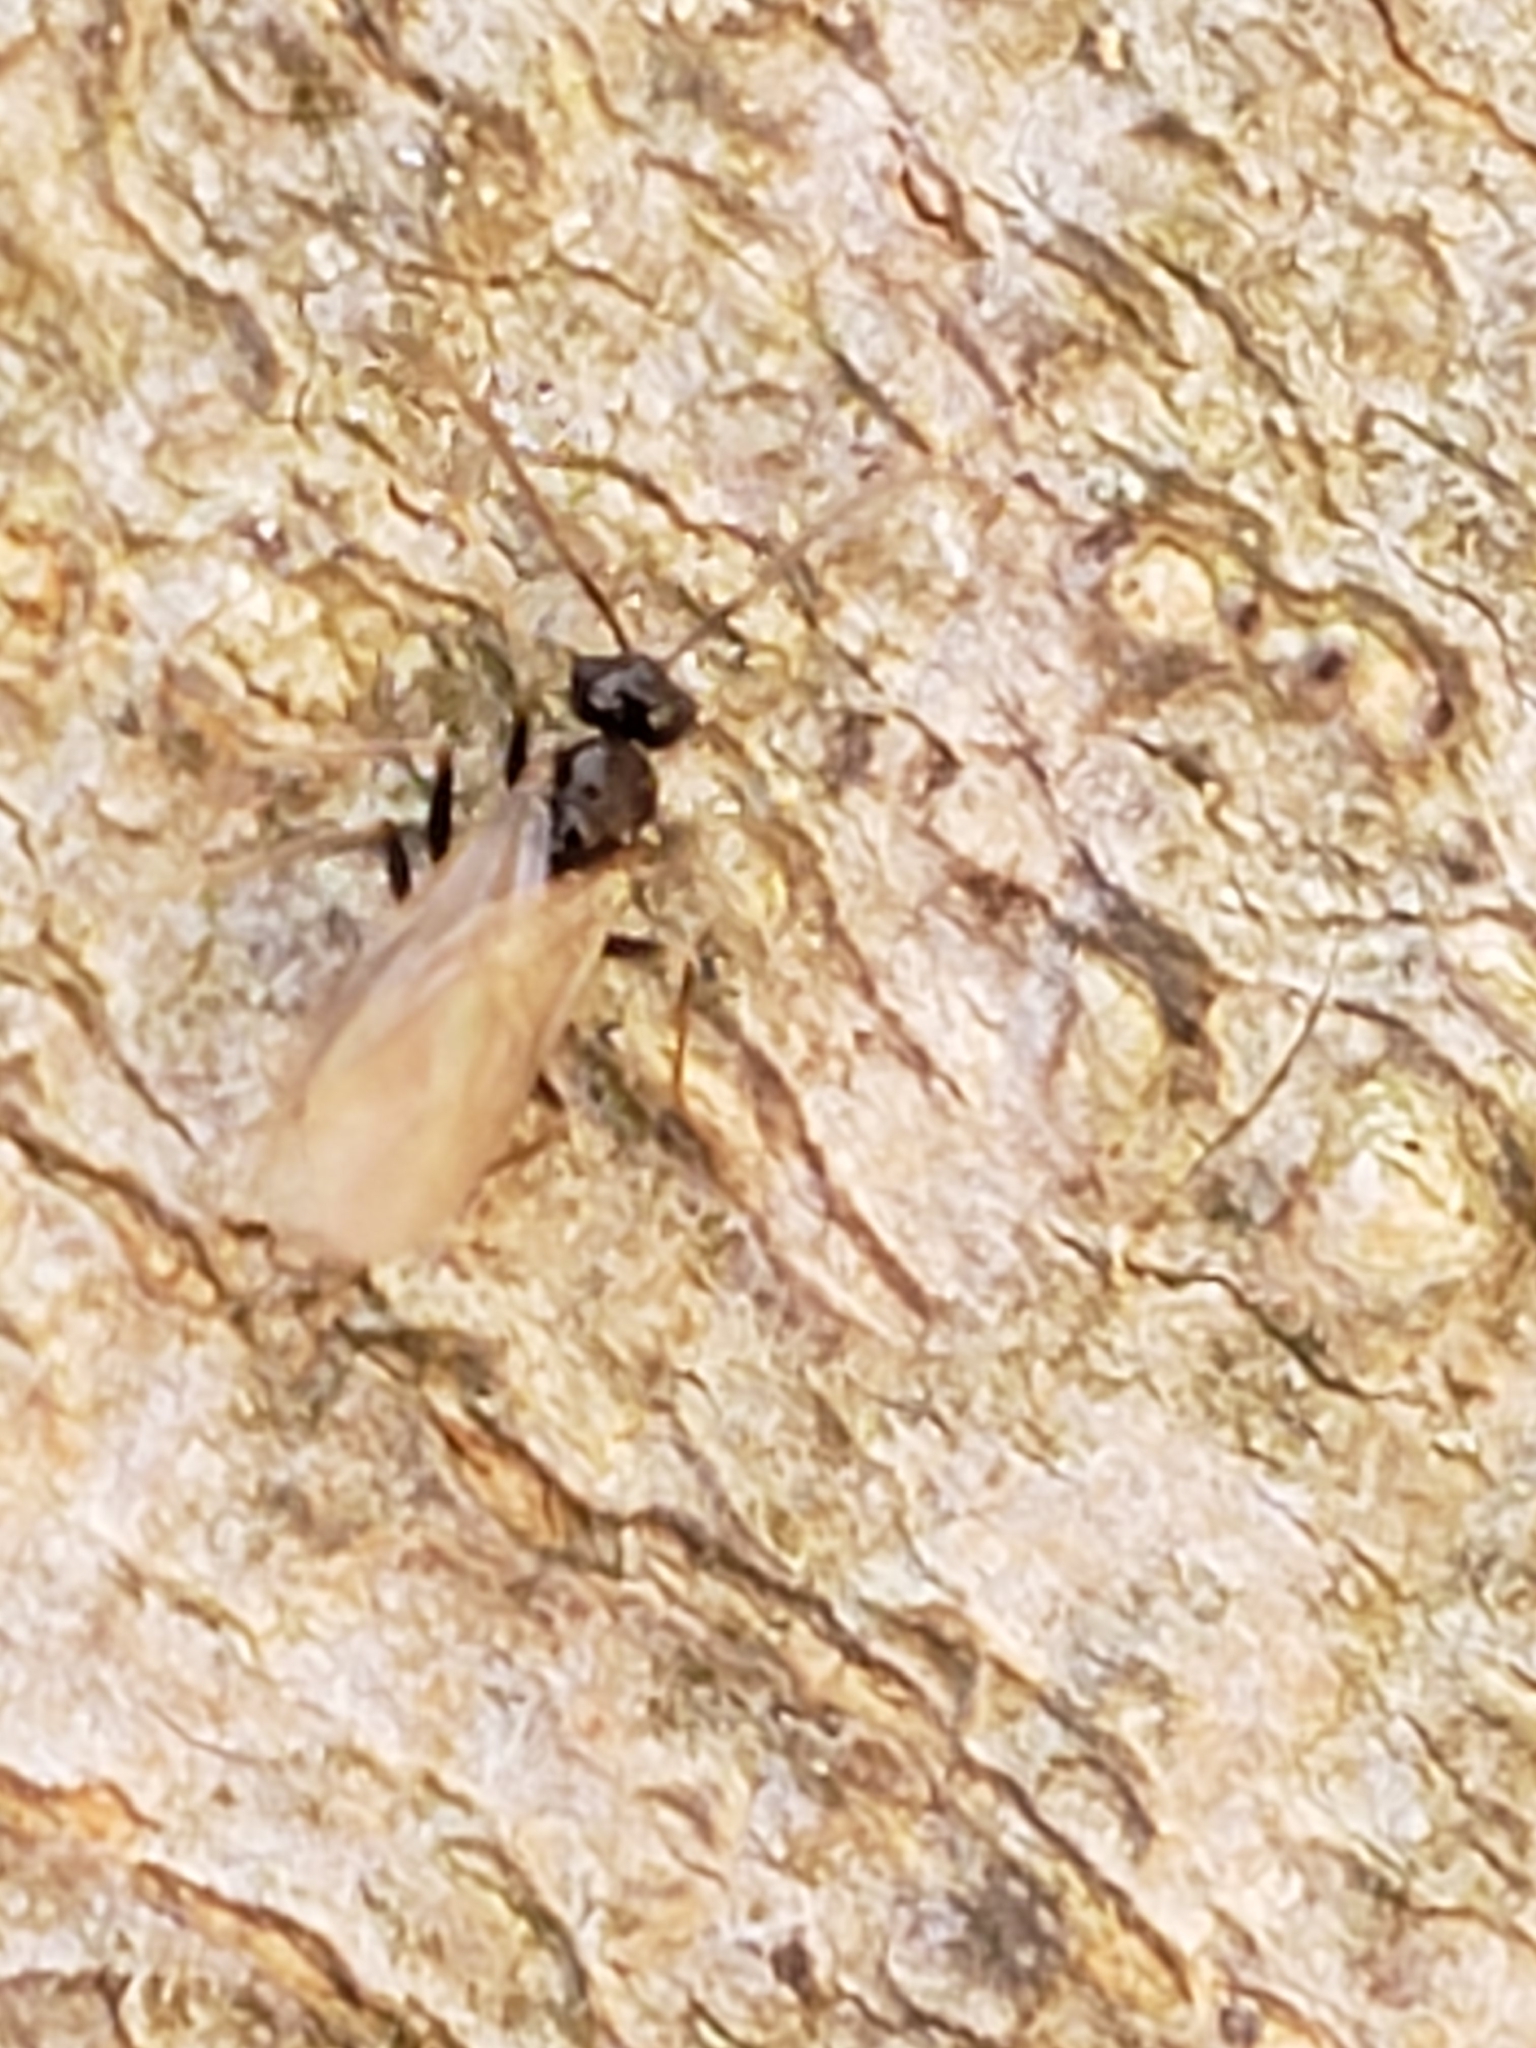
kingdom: Animalia
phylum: Arthropoda
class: Insecta
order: Hymenoptera
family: Formicidae
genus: Prenolepis
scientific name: Prenolepis imparis
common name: Small honey ant
